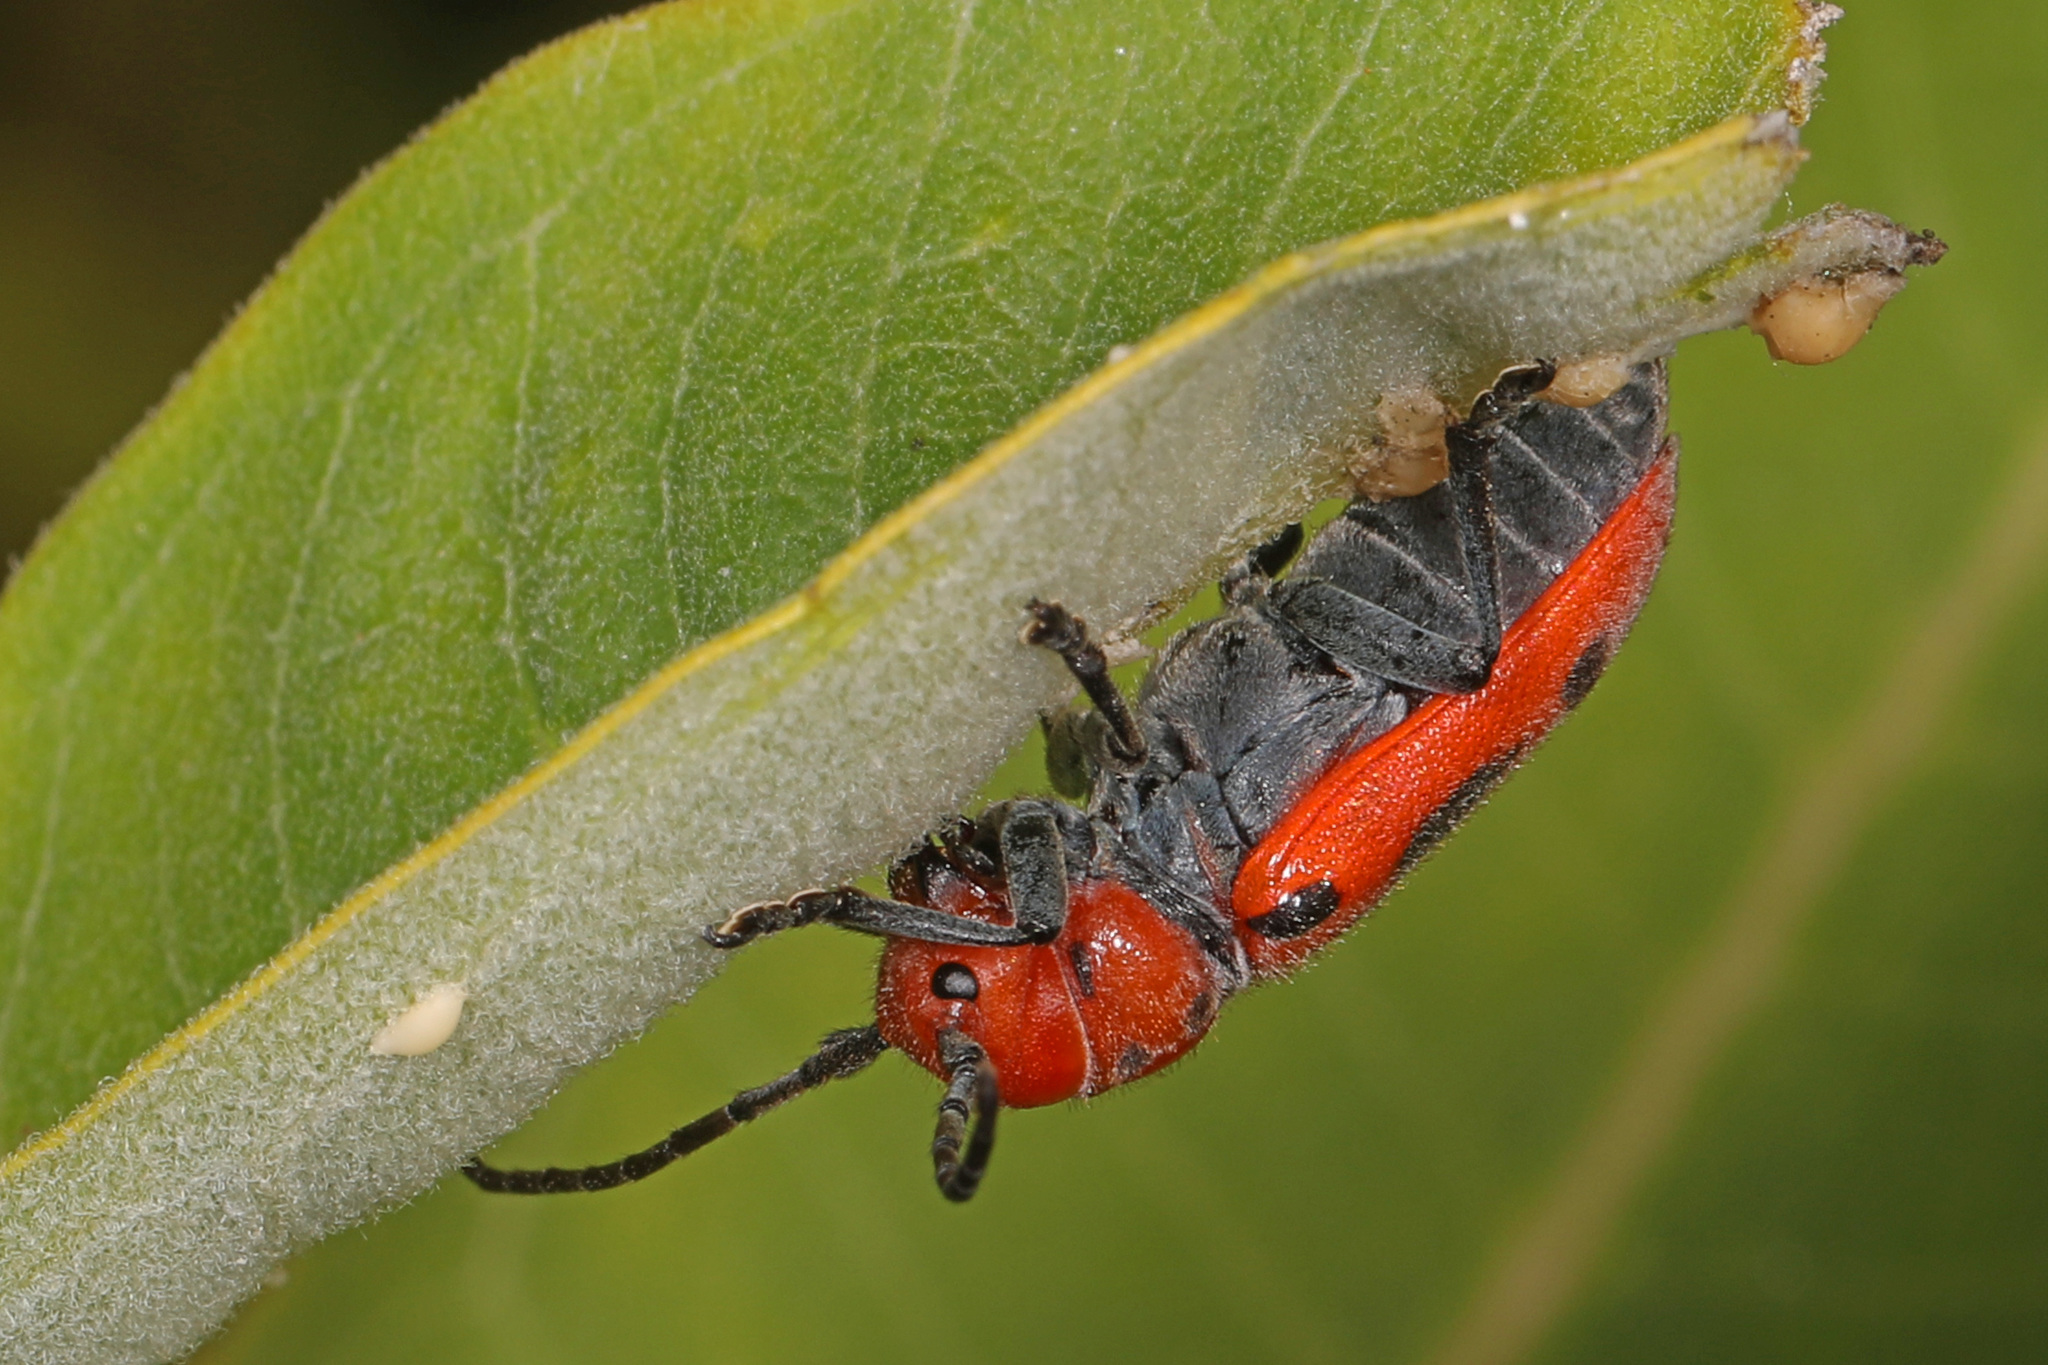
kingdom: Animalia
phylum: Arthropoda
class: Insecta
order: Coleoptera
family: Cerambycidae
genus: Tetraopes
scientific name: Tetraopes tetrophthalmus
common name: Red milkweed beetle
